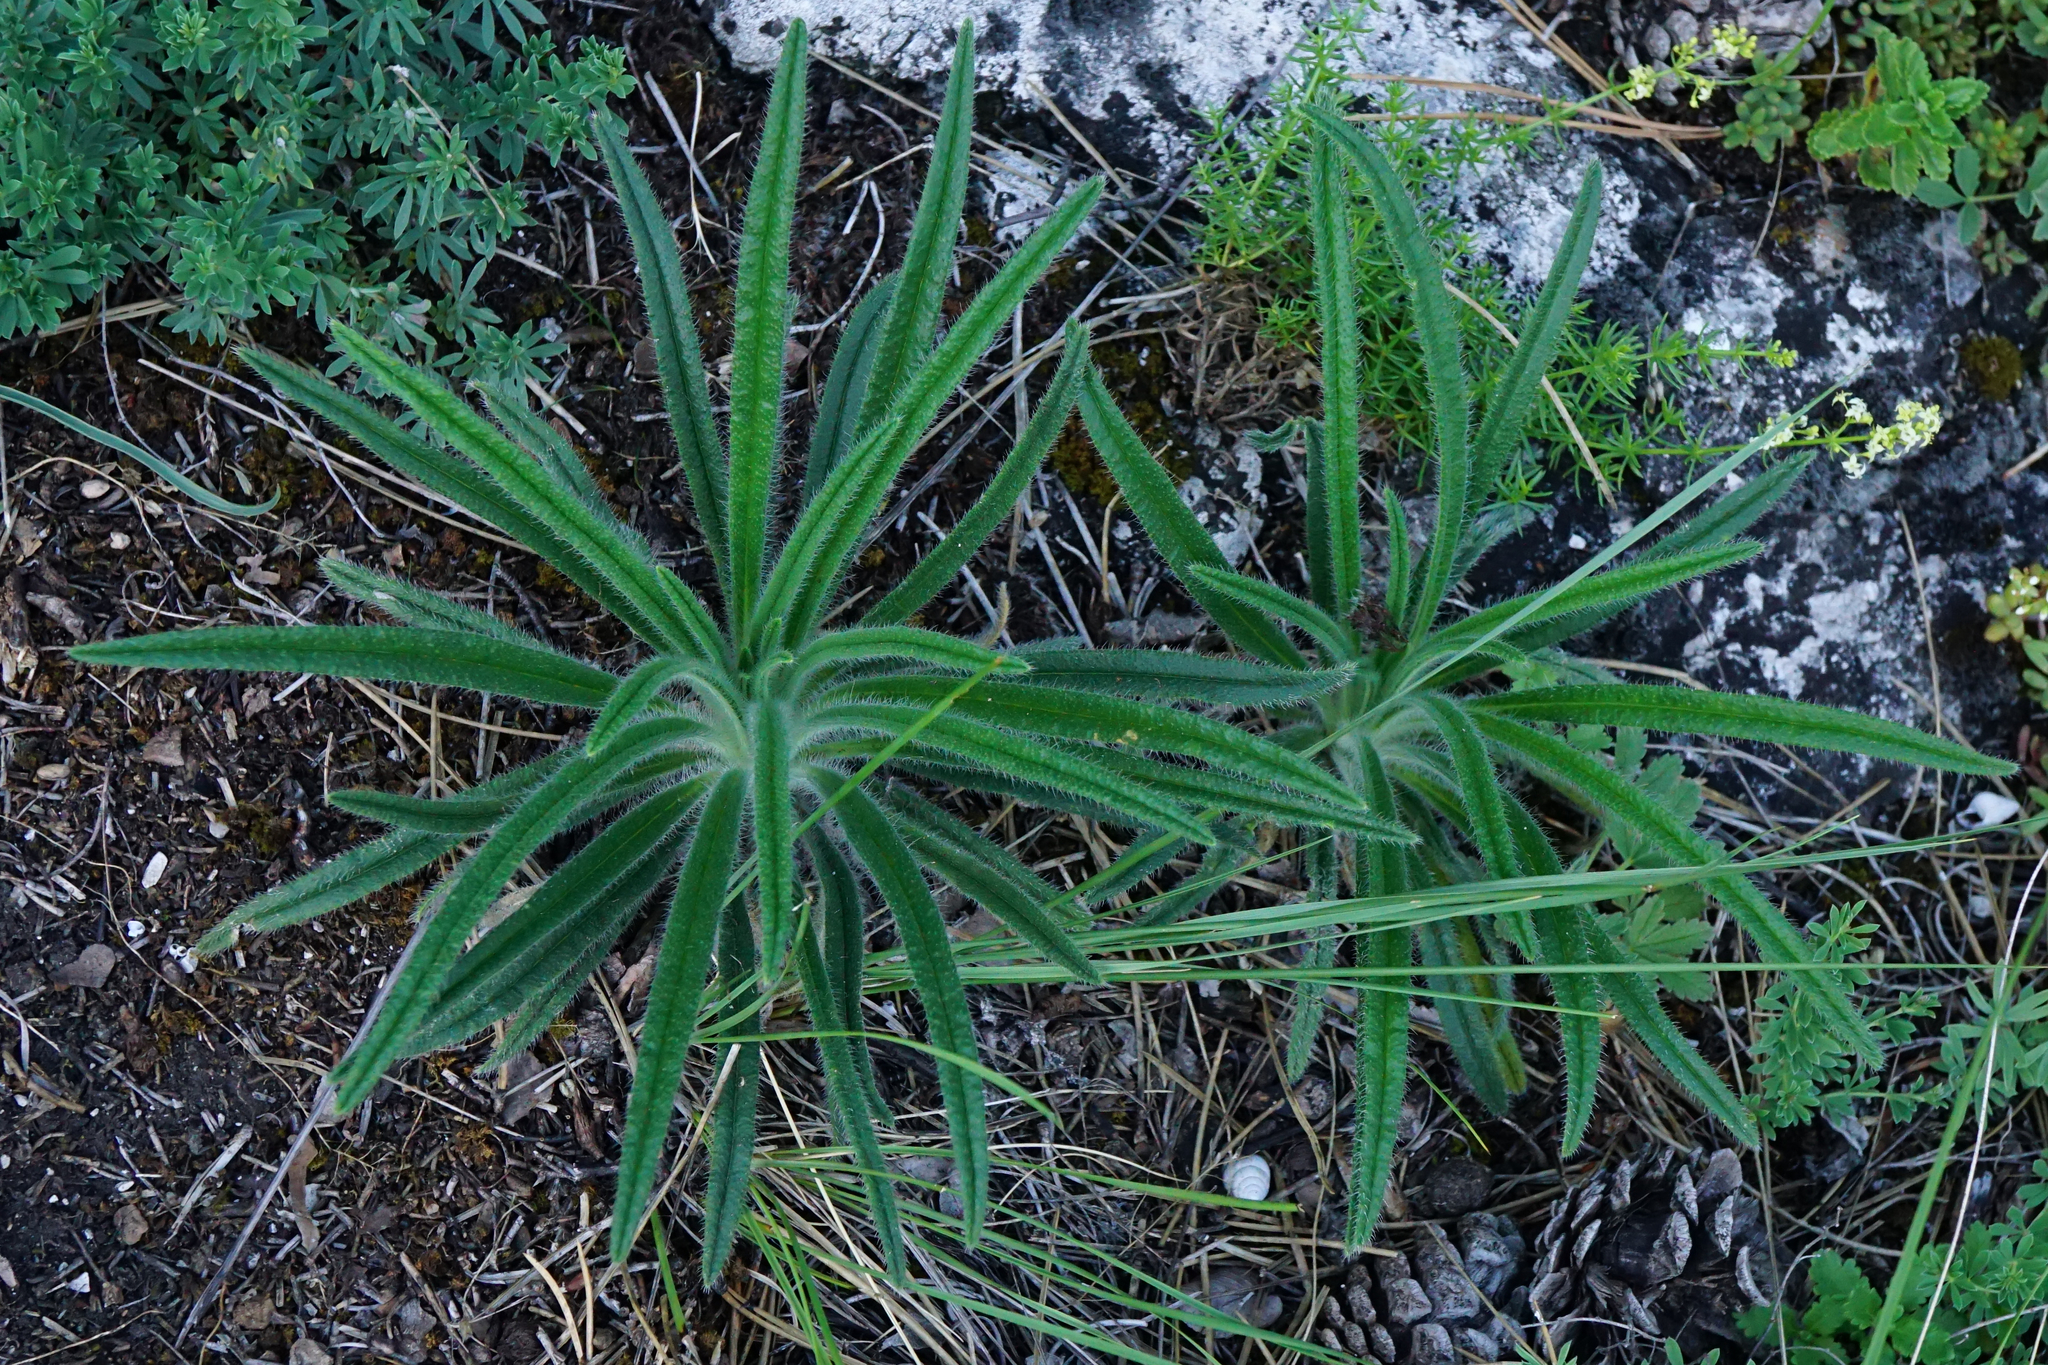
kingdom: Plantae
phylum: Tracheophyta
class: Magnoliopsida
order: Boraginales
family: Boraginaceae
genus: Onosma
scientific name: Onosma visianii
